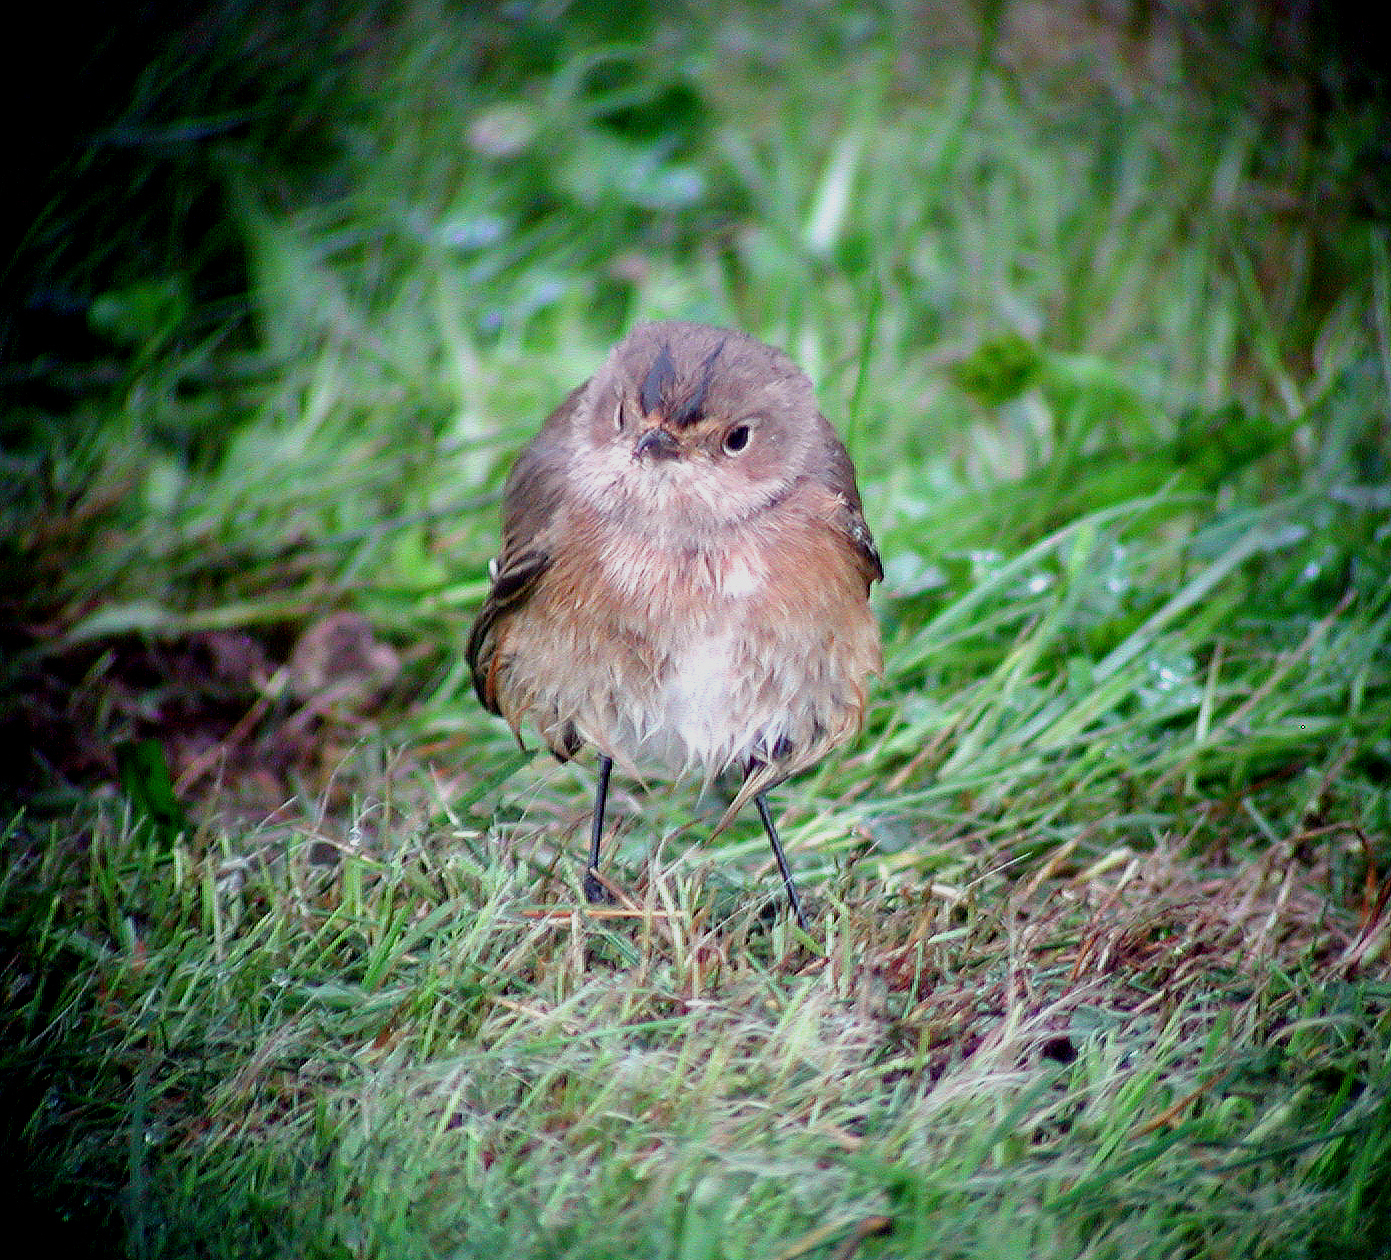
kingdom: Animalia
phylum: Chordata
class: Aves
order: Passeriformes
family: Muscicapidae
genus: Phoenicurus
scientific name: Phoenicurus phoenicurus
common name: Common redstart
